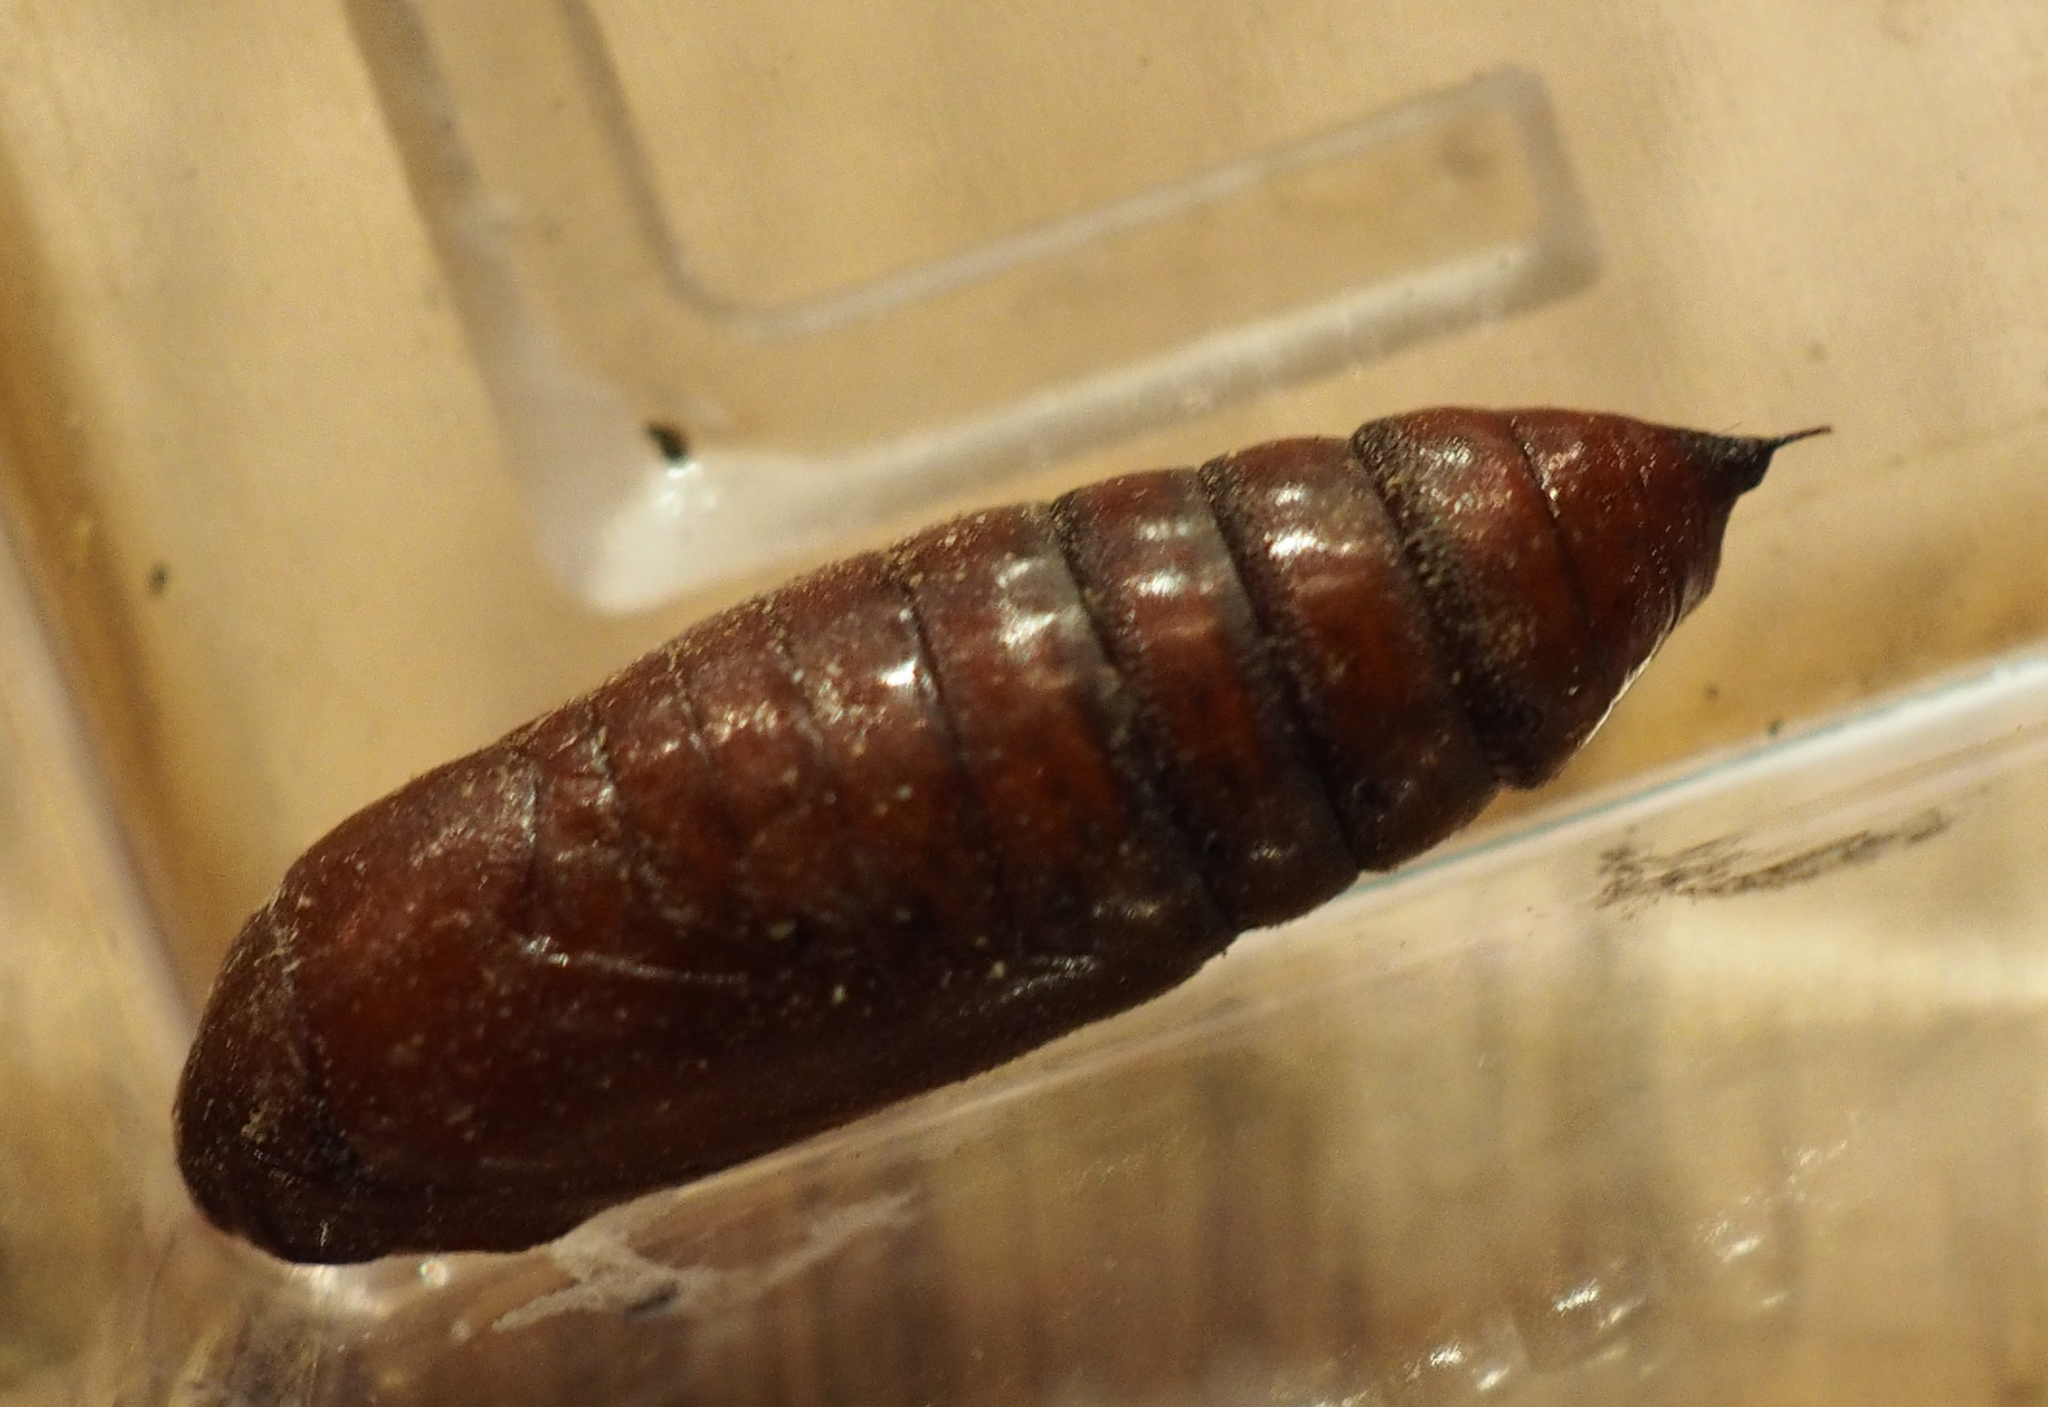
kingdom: Animalia
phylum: Arthropoda
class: Insecta
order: Lepidoptera
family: Noctuidae
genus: Mamestra
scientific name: Mamestra brassicae
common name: Cabbage moth
